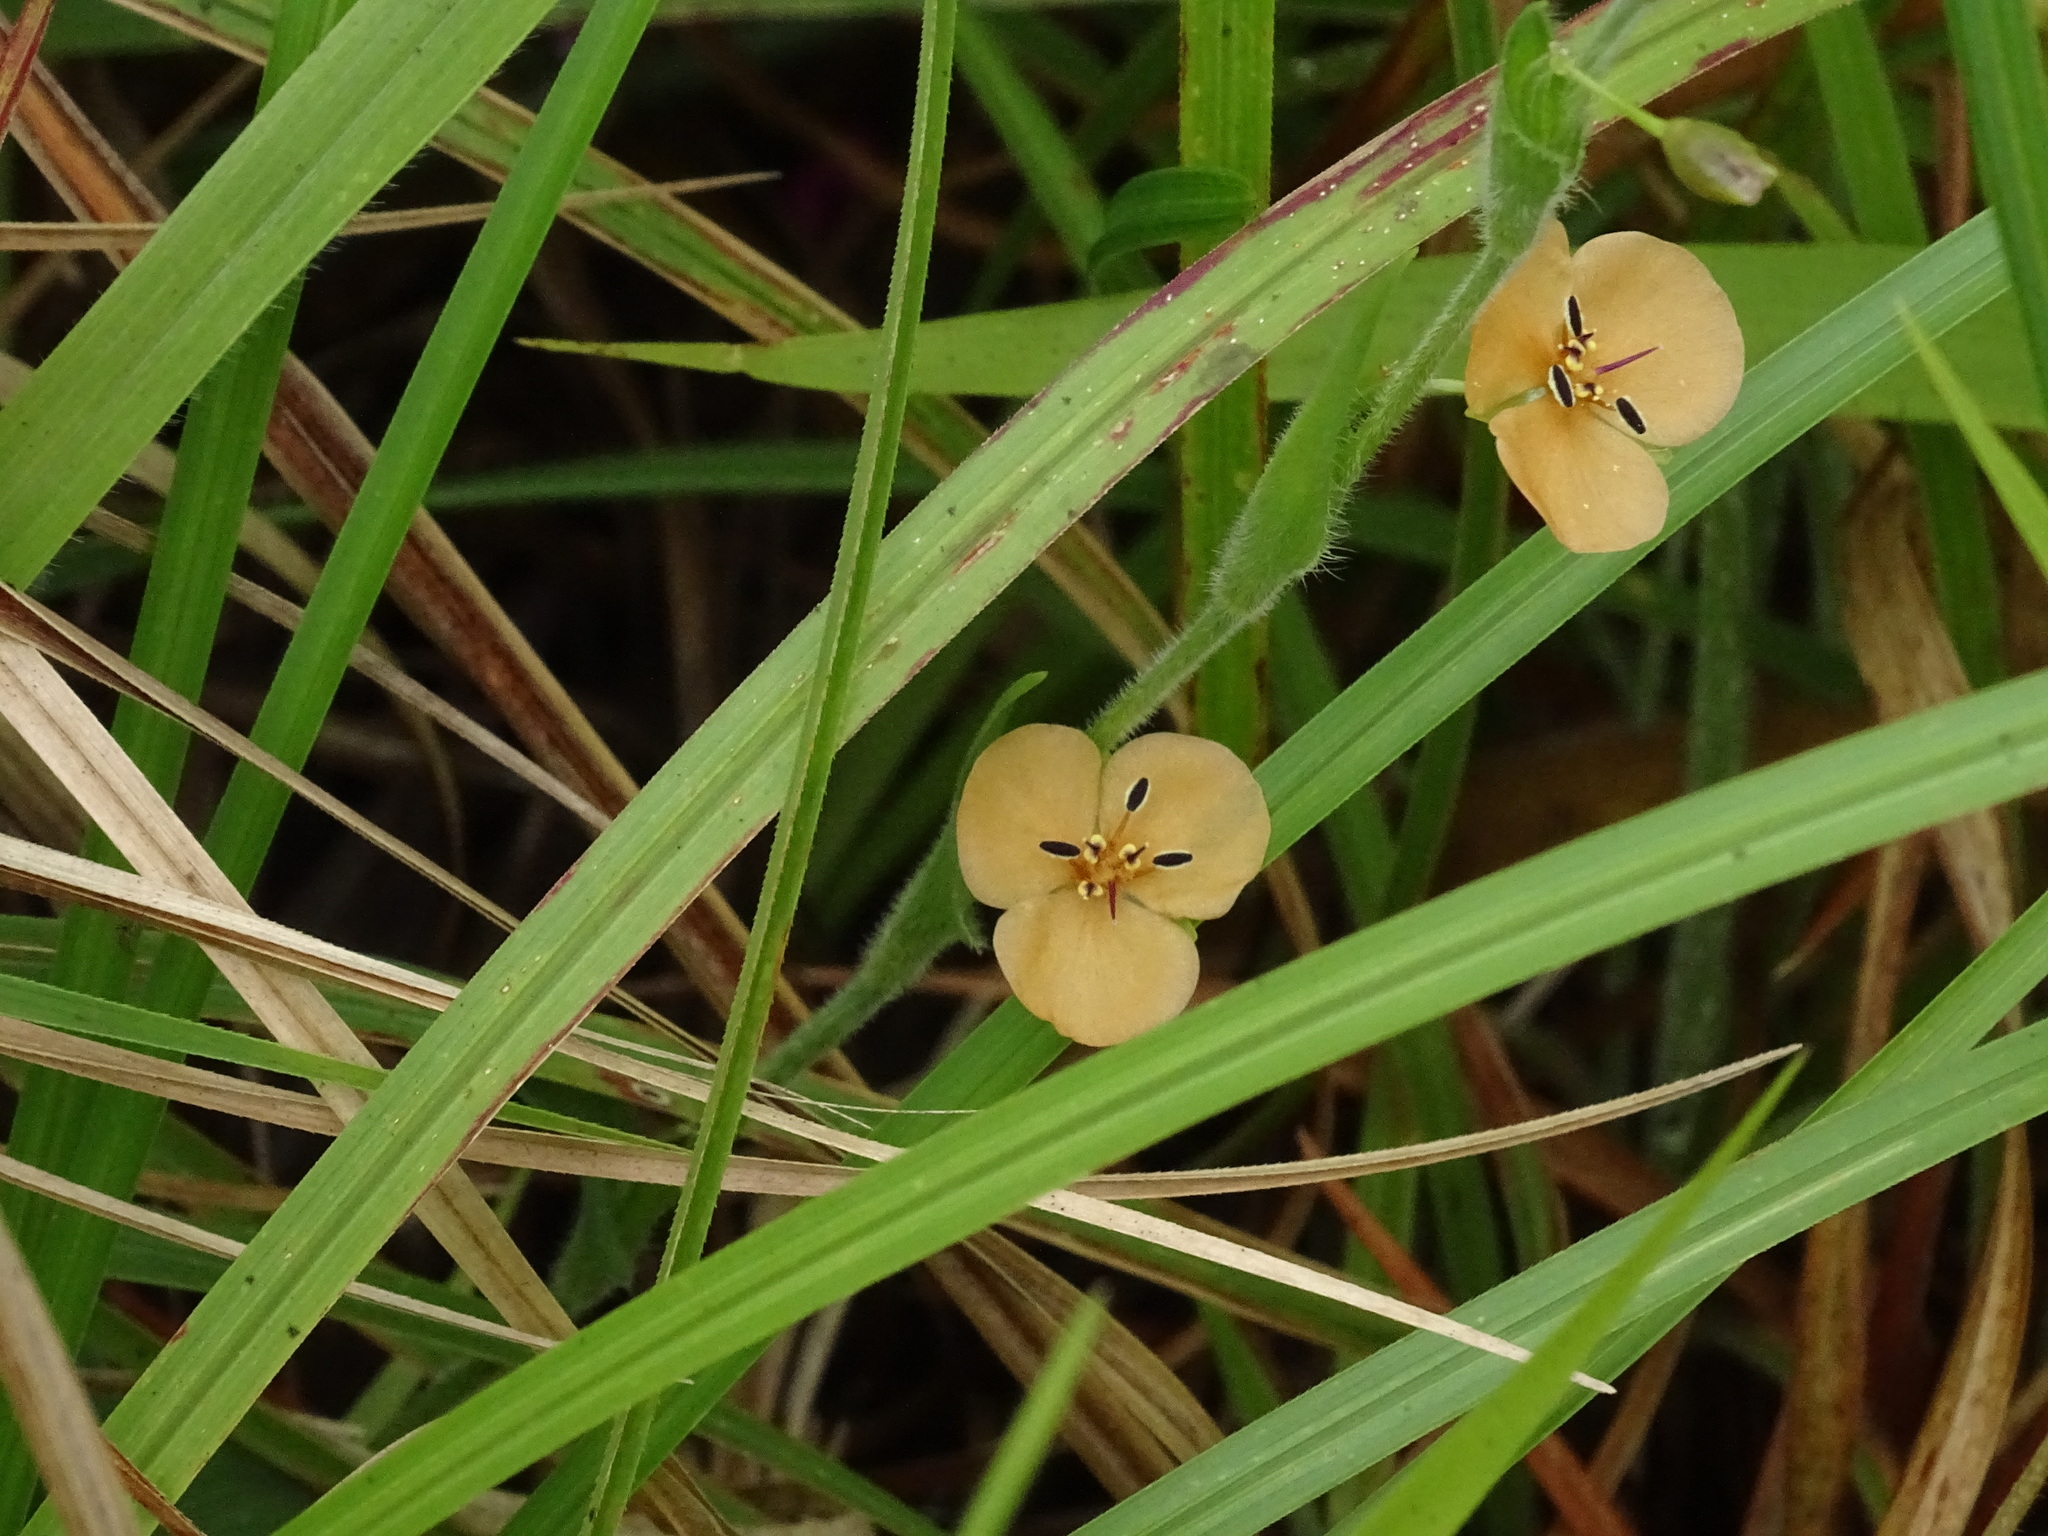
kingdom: Plantae
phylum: Tracheophyta
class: Liliopsida
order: Commelinales
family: Commelinaceae
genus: Murdannia
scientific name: Murdannia lanuginosa
